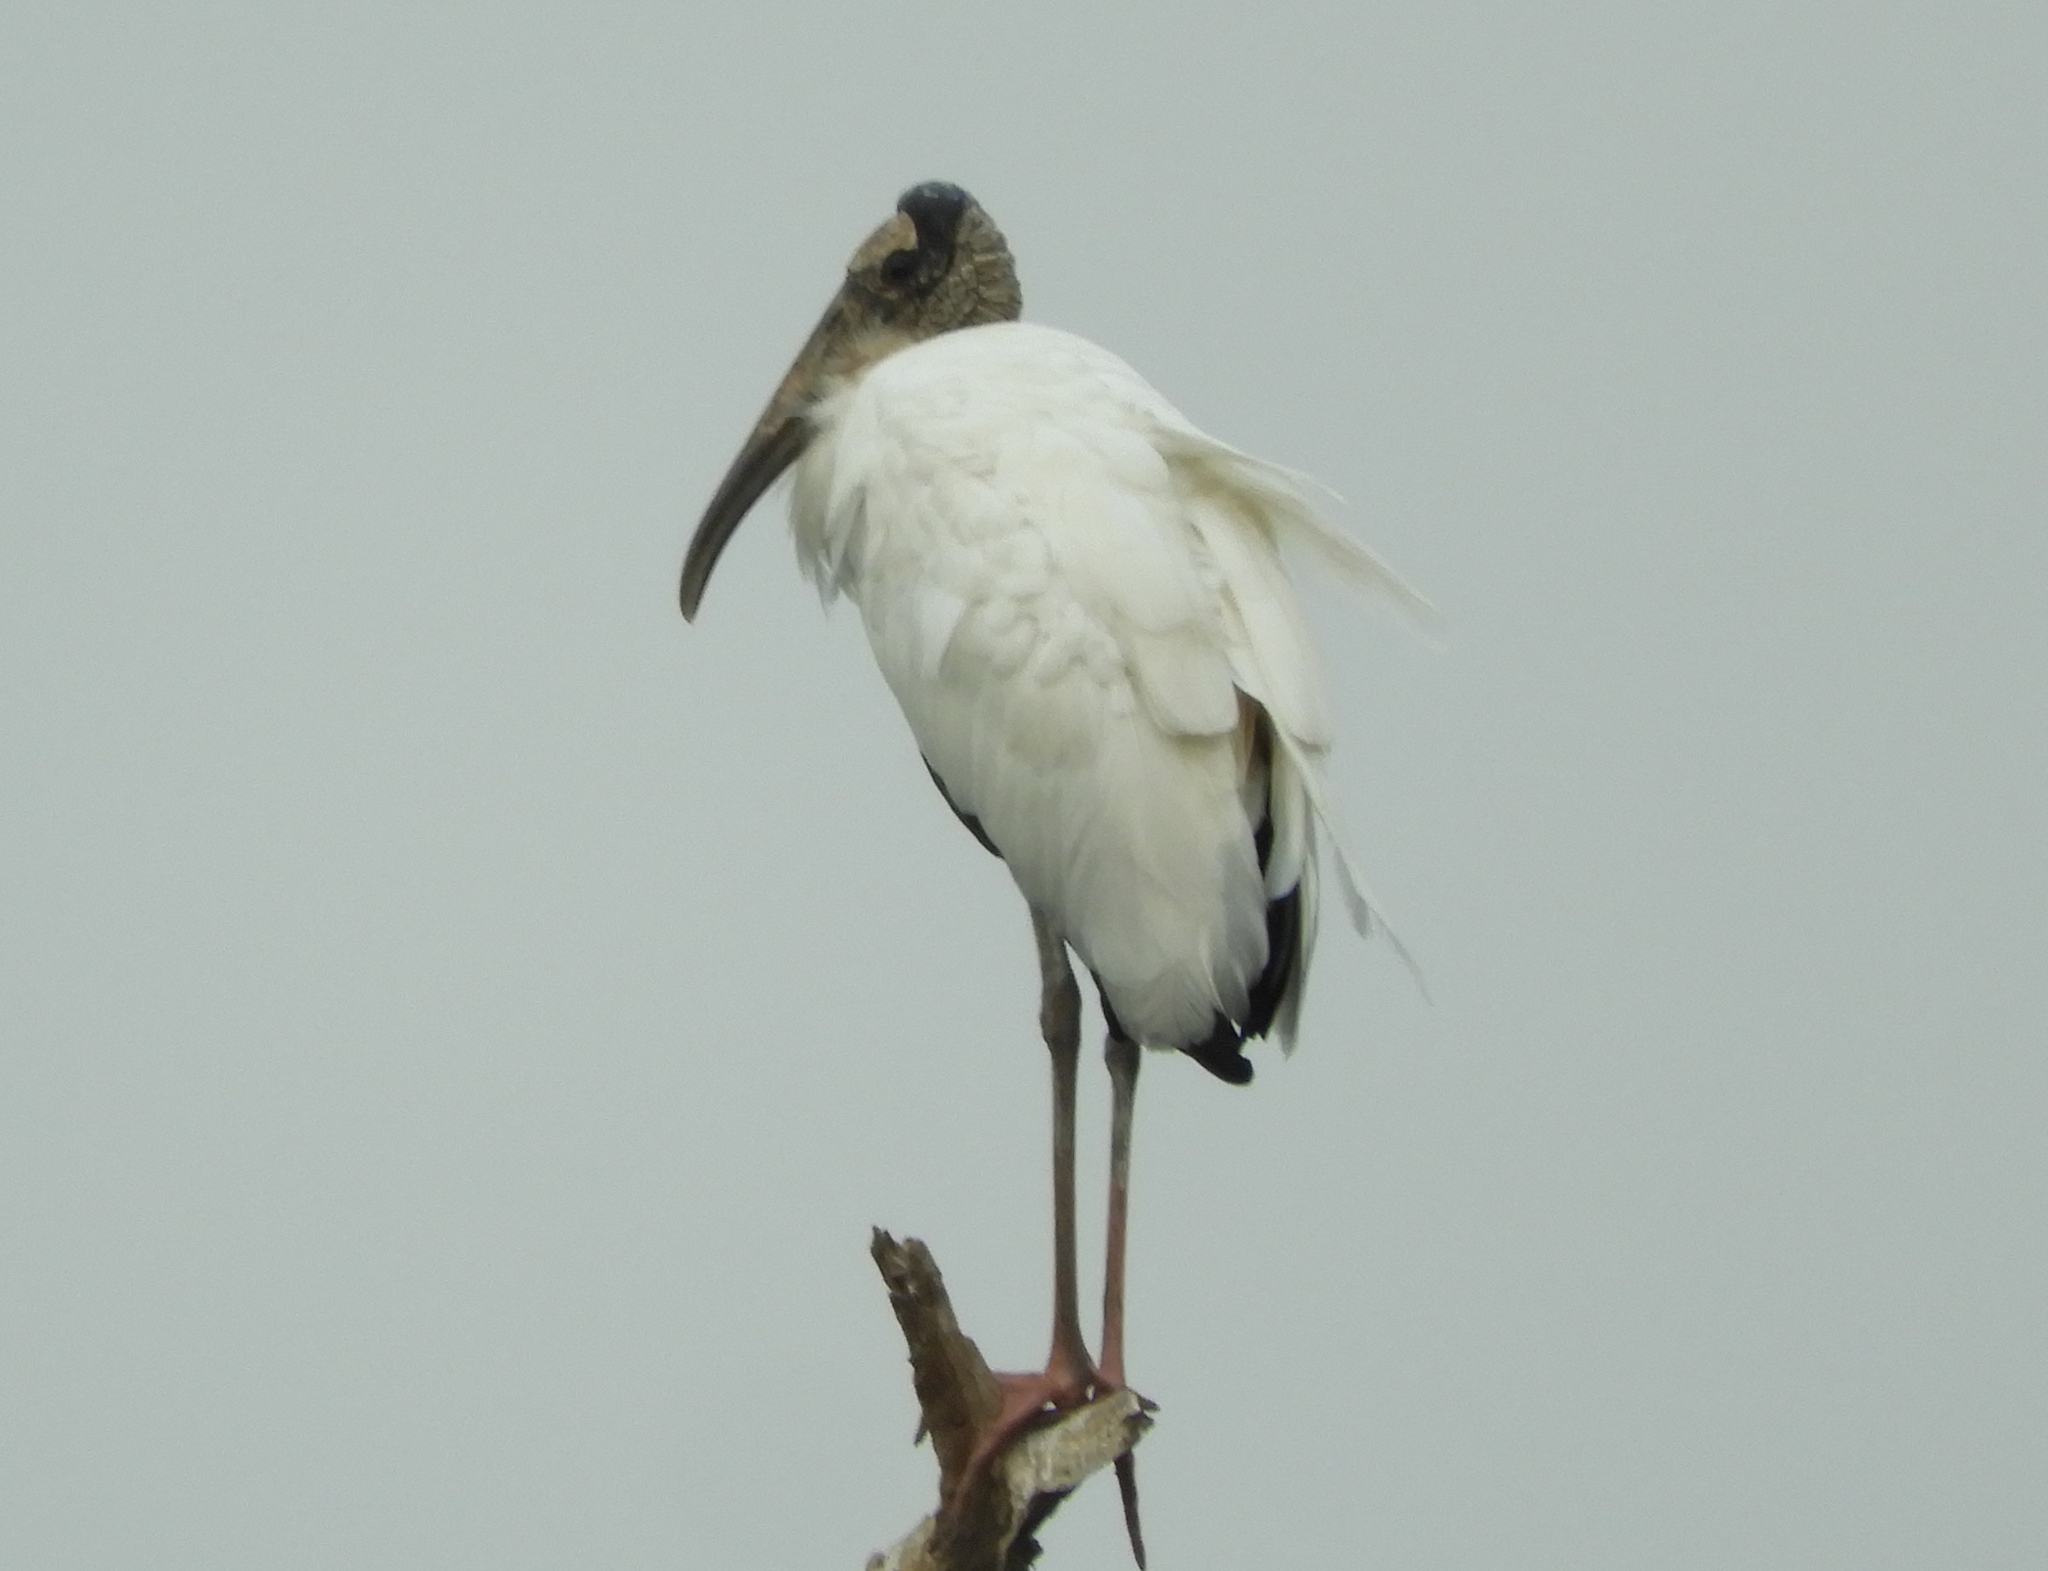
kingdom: Animalia
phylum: Chordata
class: Aves
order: Ciconiiformes
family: Ciconiidae
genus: Mycteria
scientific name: Mycteria americana
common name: Wood stork
